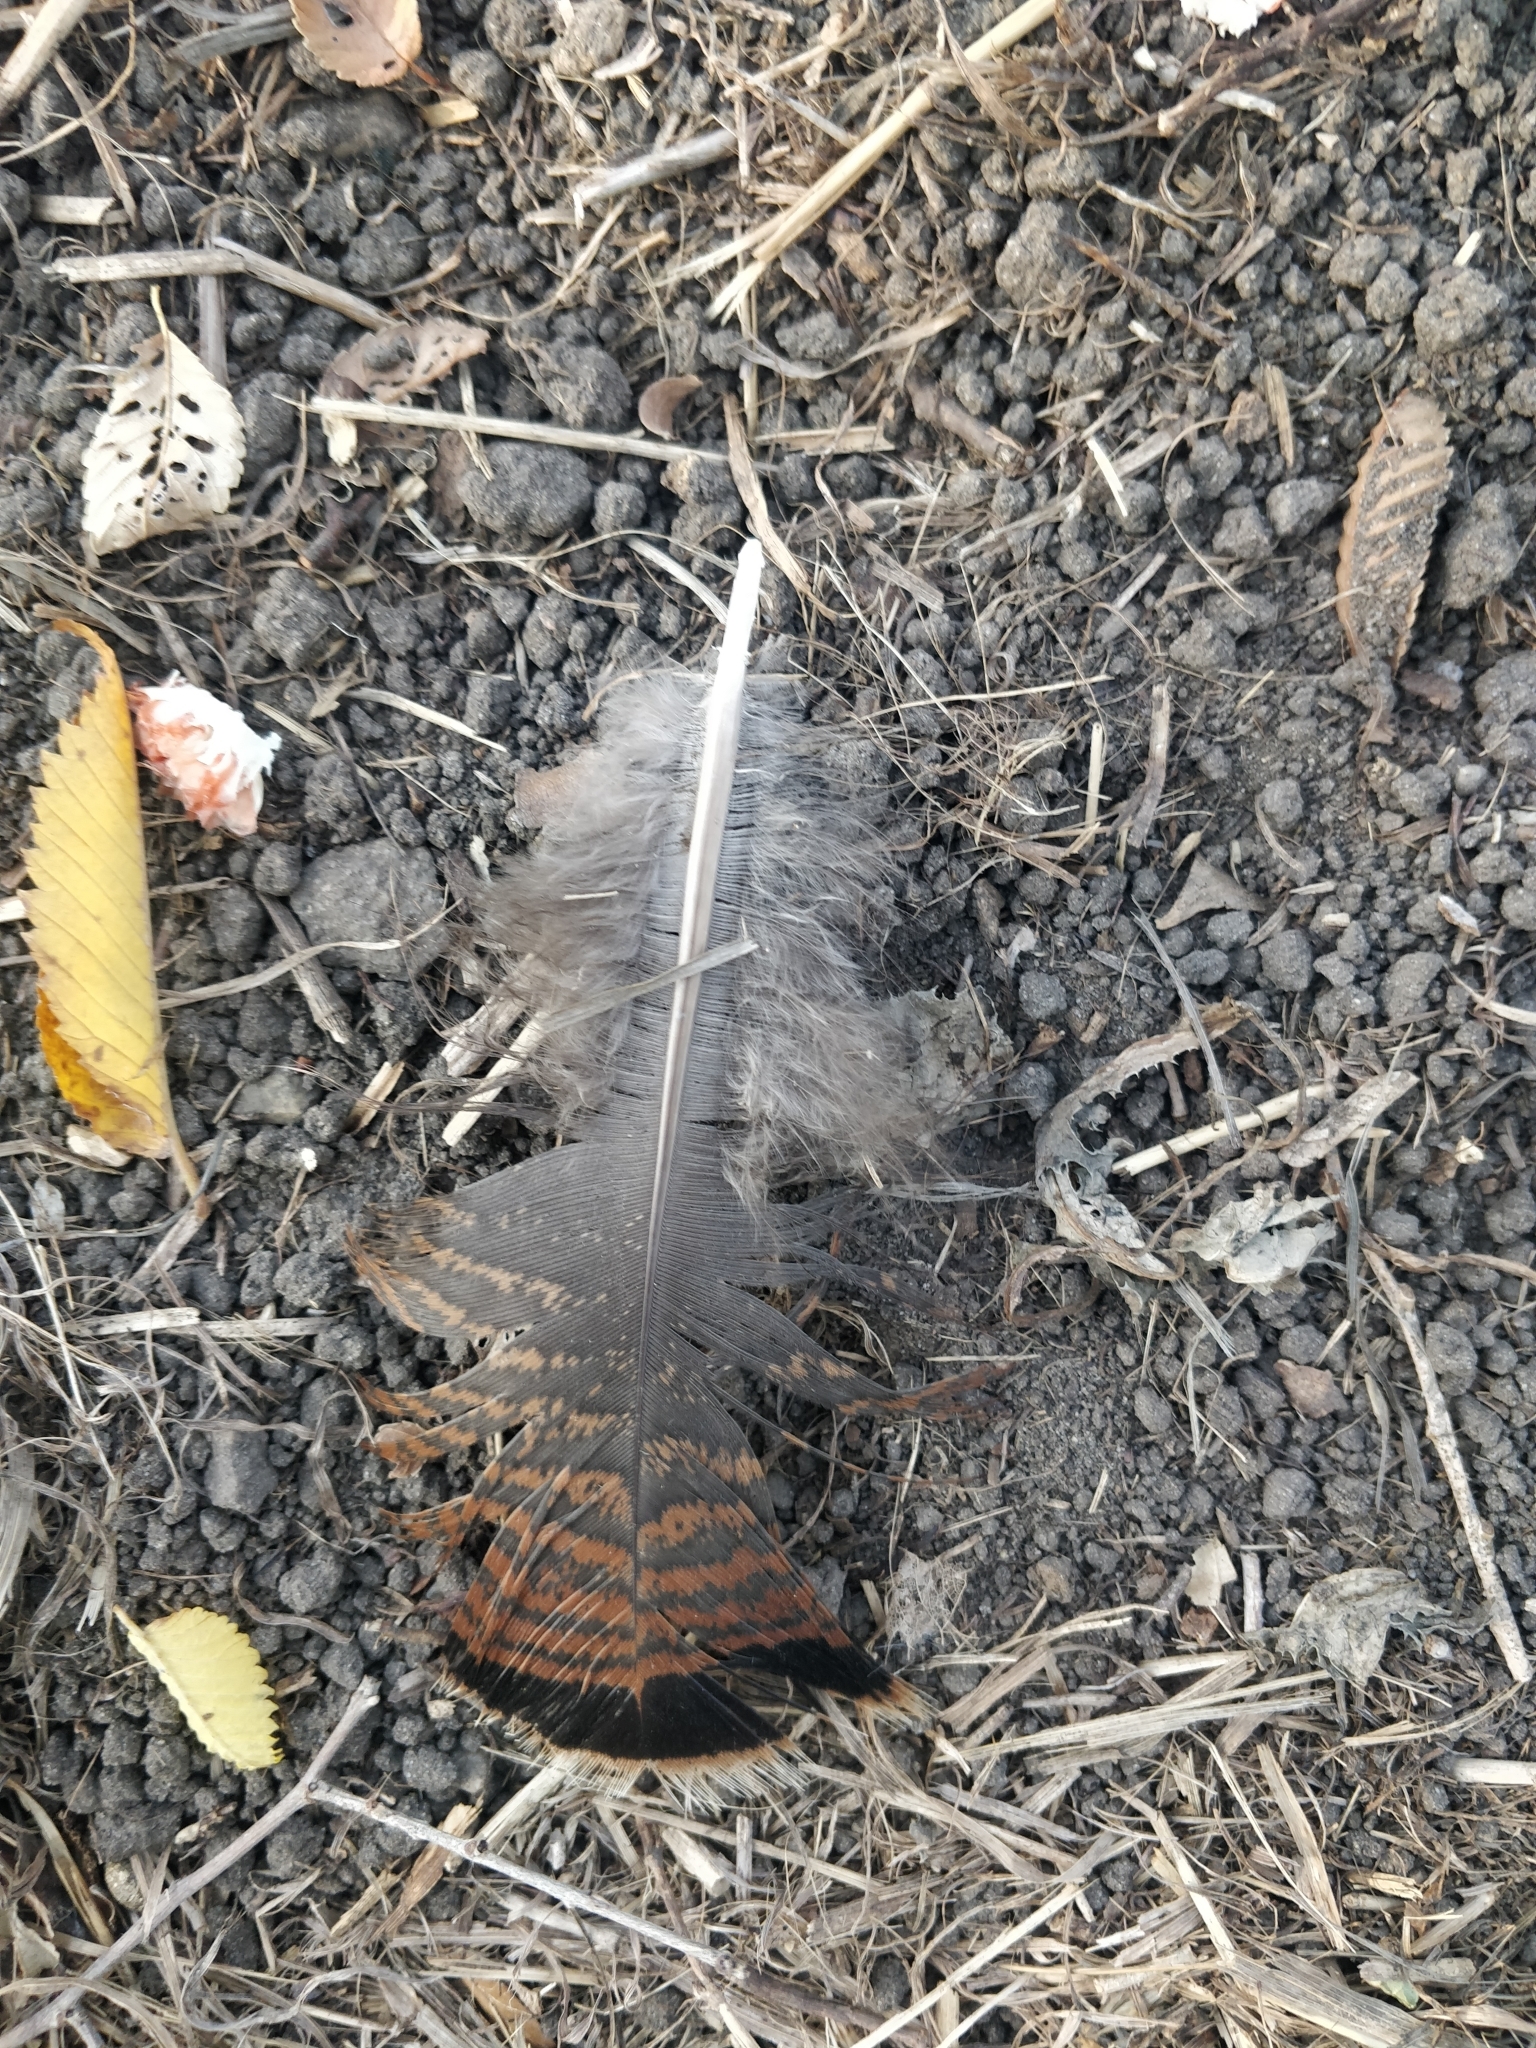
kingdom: Animalia
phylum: Chordata
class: Aves
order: Galliformes
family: Phasianidae
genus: Meleagris
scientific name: Meleagris gallopavo
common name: Wild turkey
